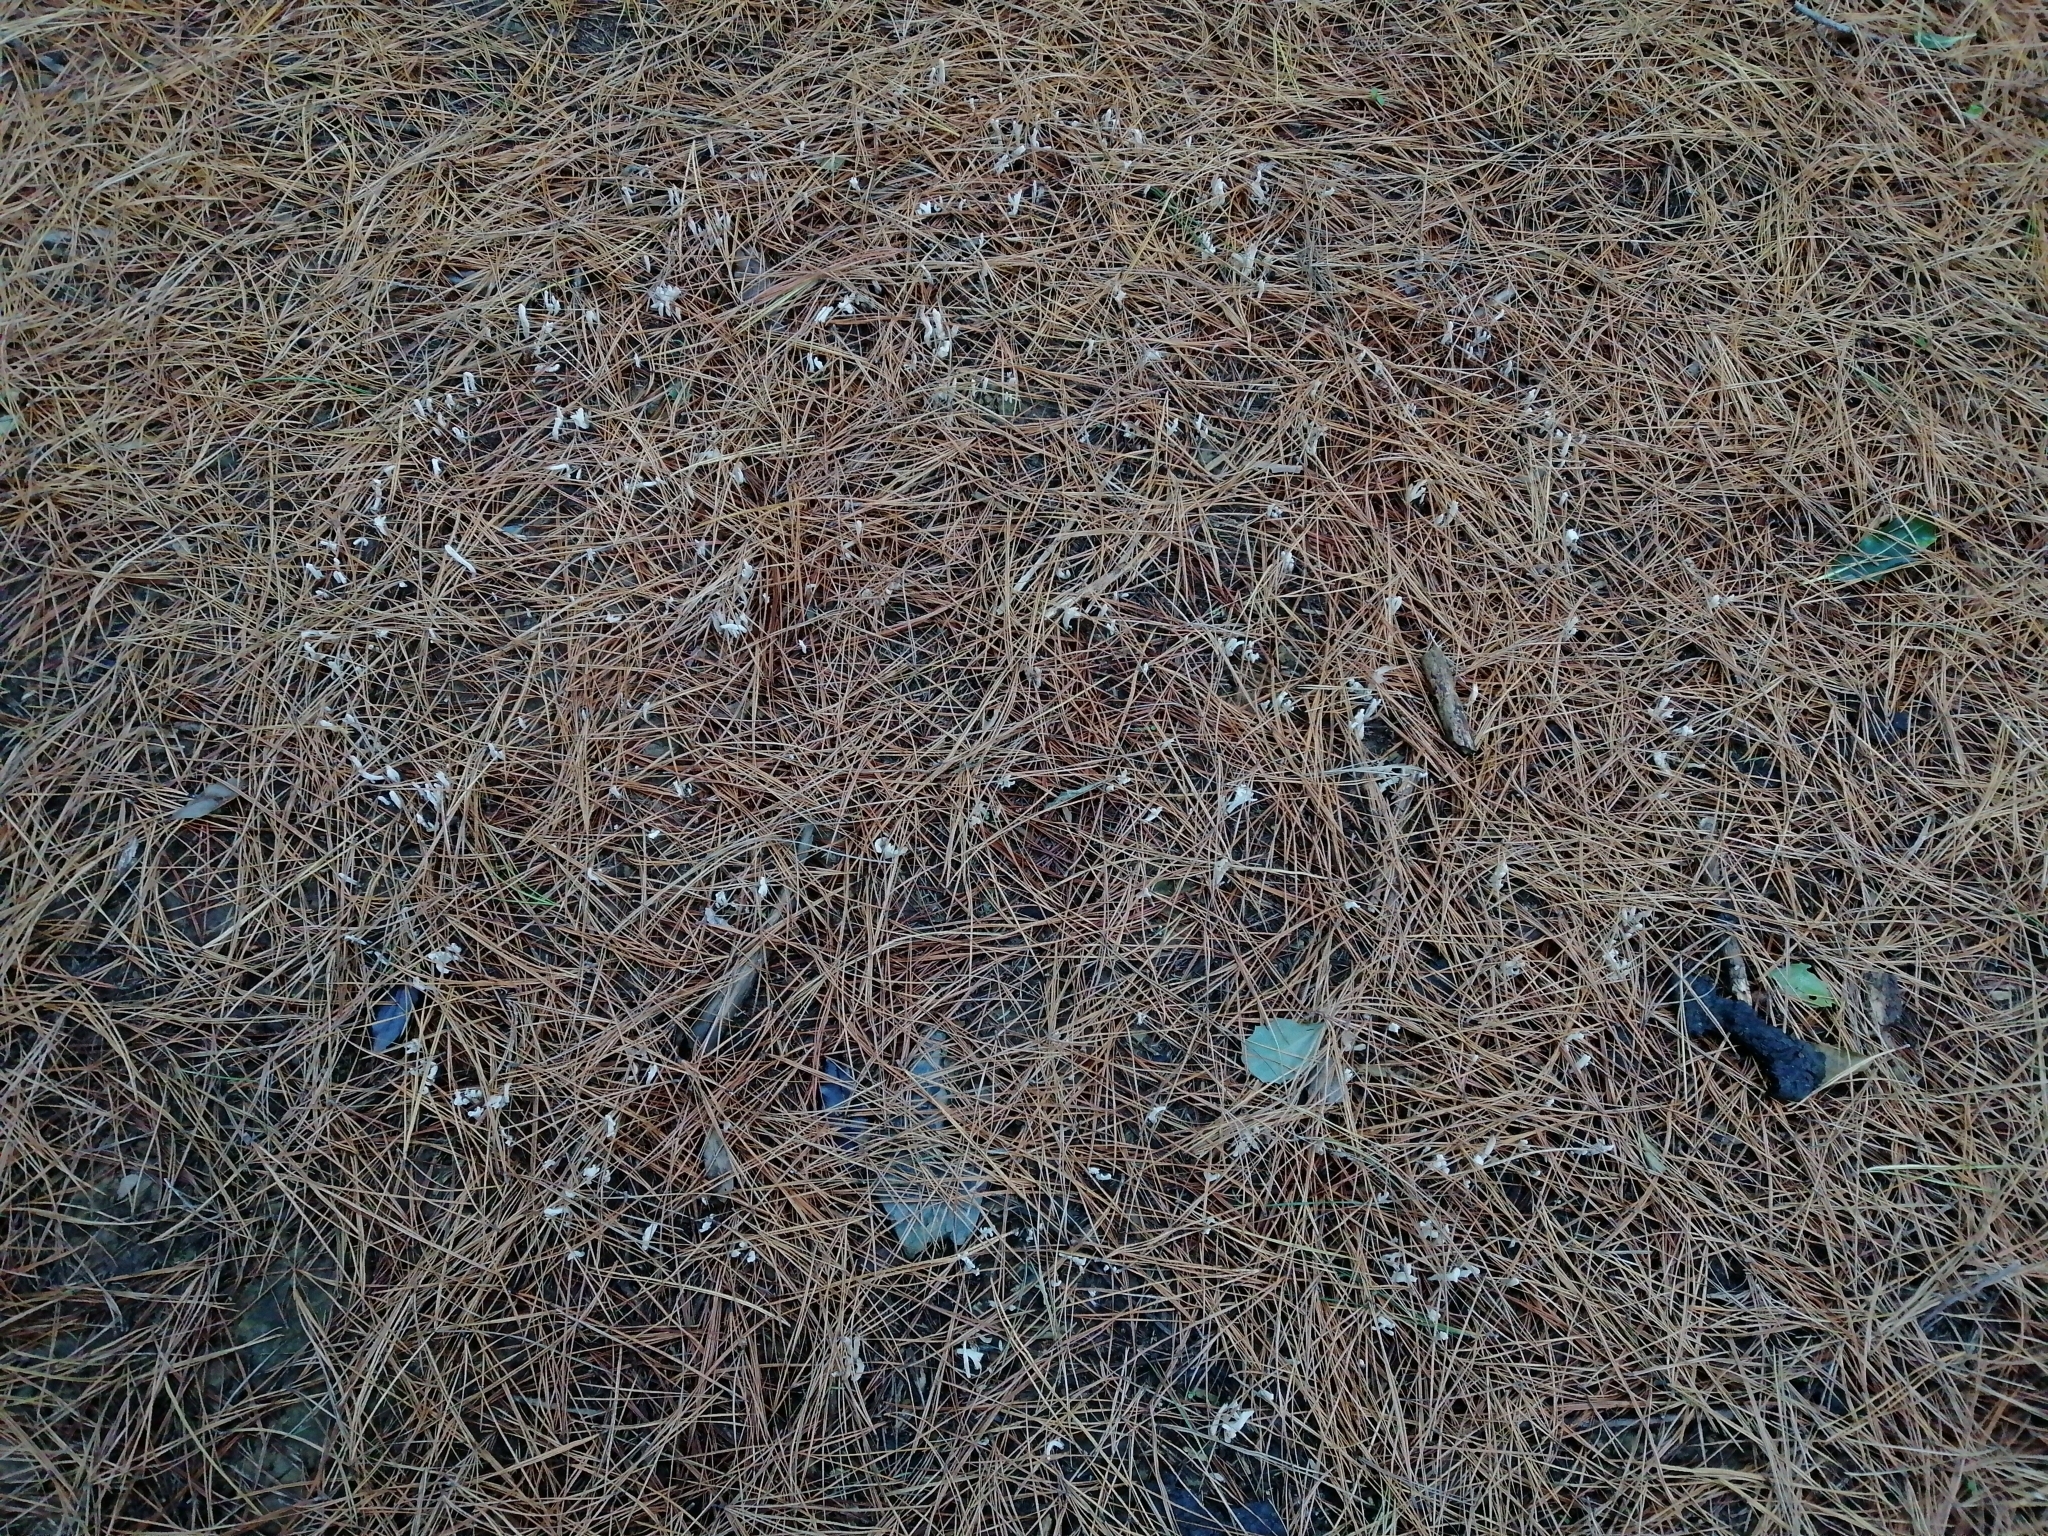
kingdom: Fungi
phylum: Basidiomycota
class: Agaricomycetes
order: Cantharellales
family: Hydnaceae
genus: Clavulina
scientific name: Clavulina rugosa
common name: Wrinkled club
